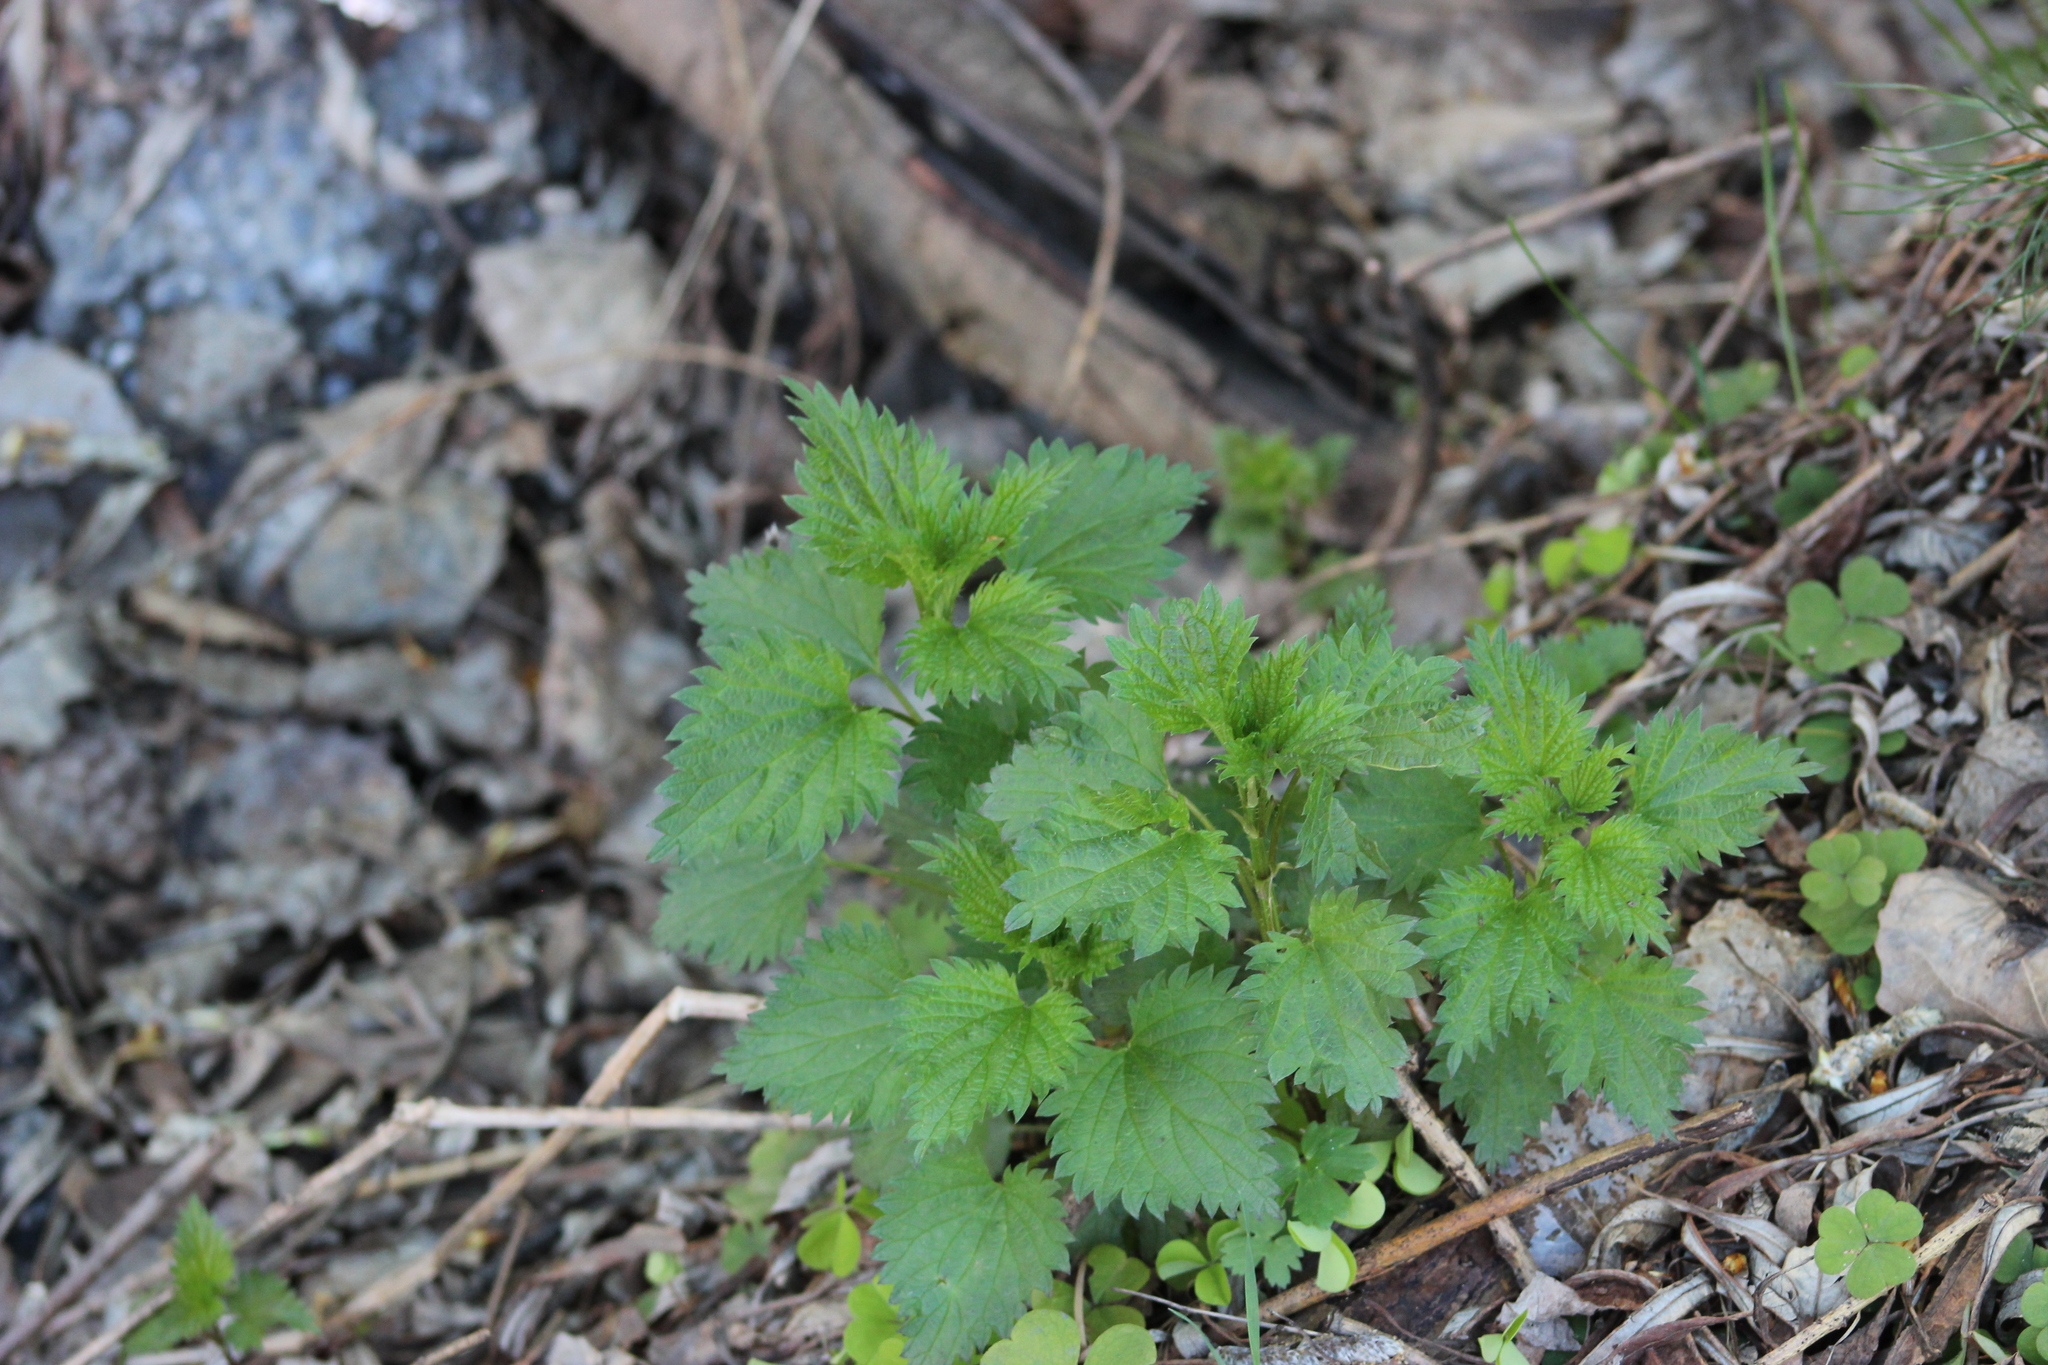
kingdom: Plantae
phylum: Tracheophyta
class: Magnoliopsida
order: Rosales
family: Urticaceae
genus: Urtica
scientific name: Urtica dioica
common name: Common nettle
